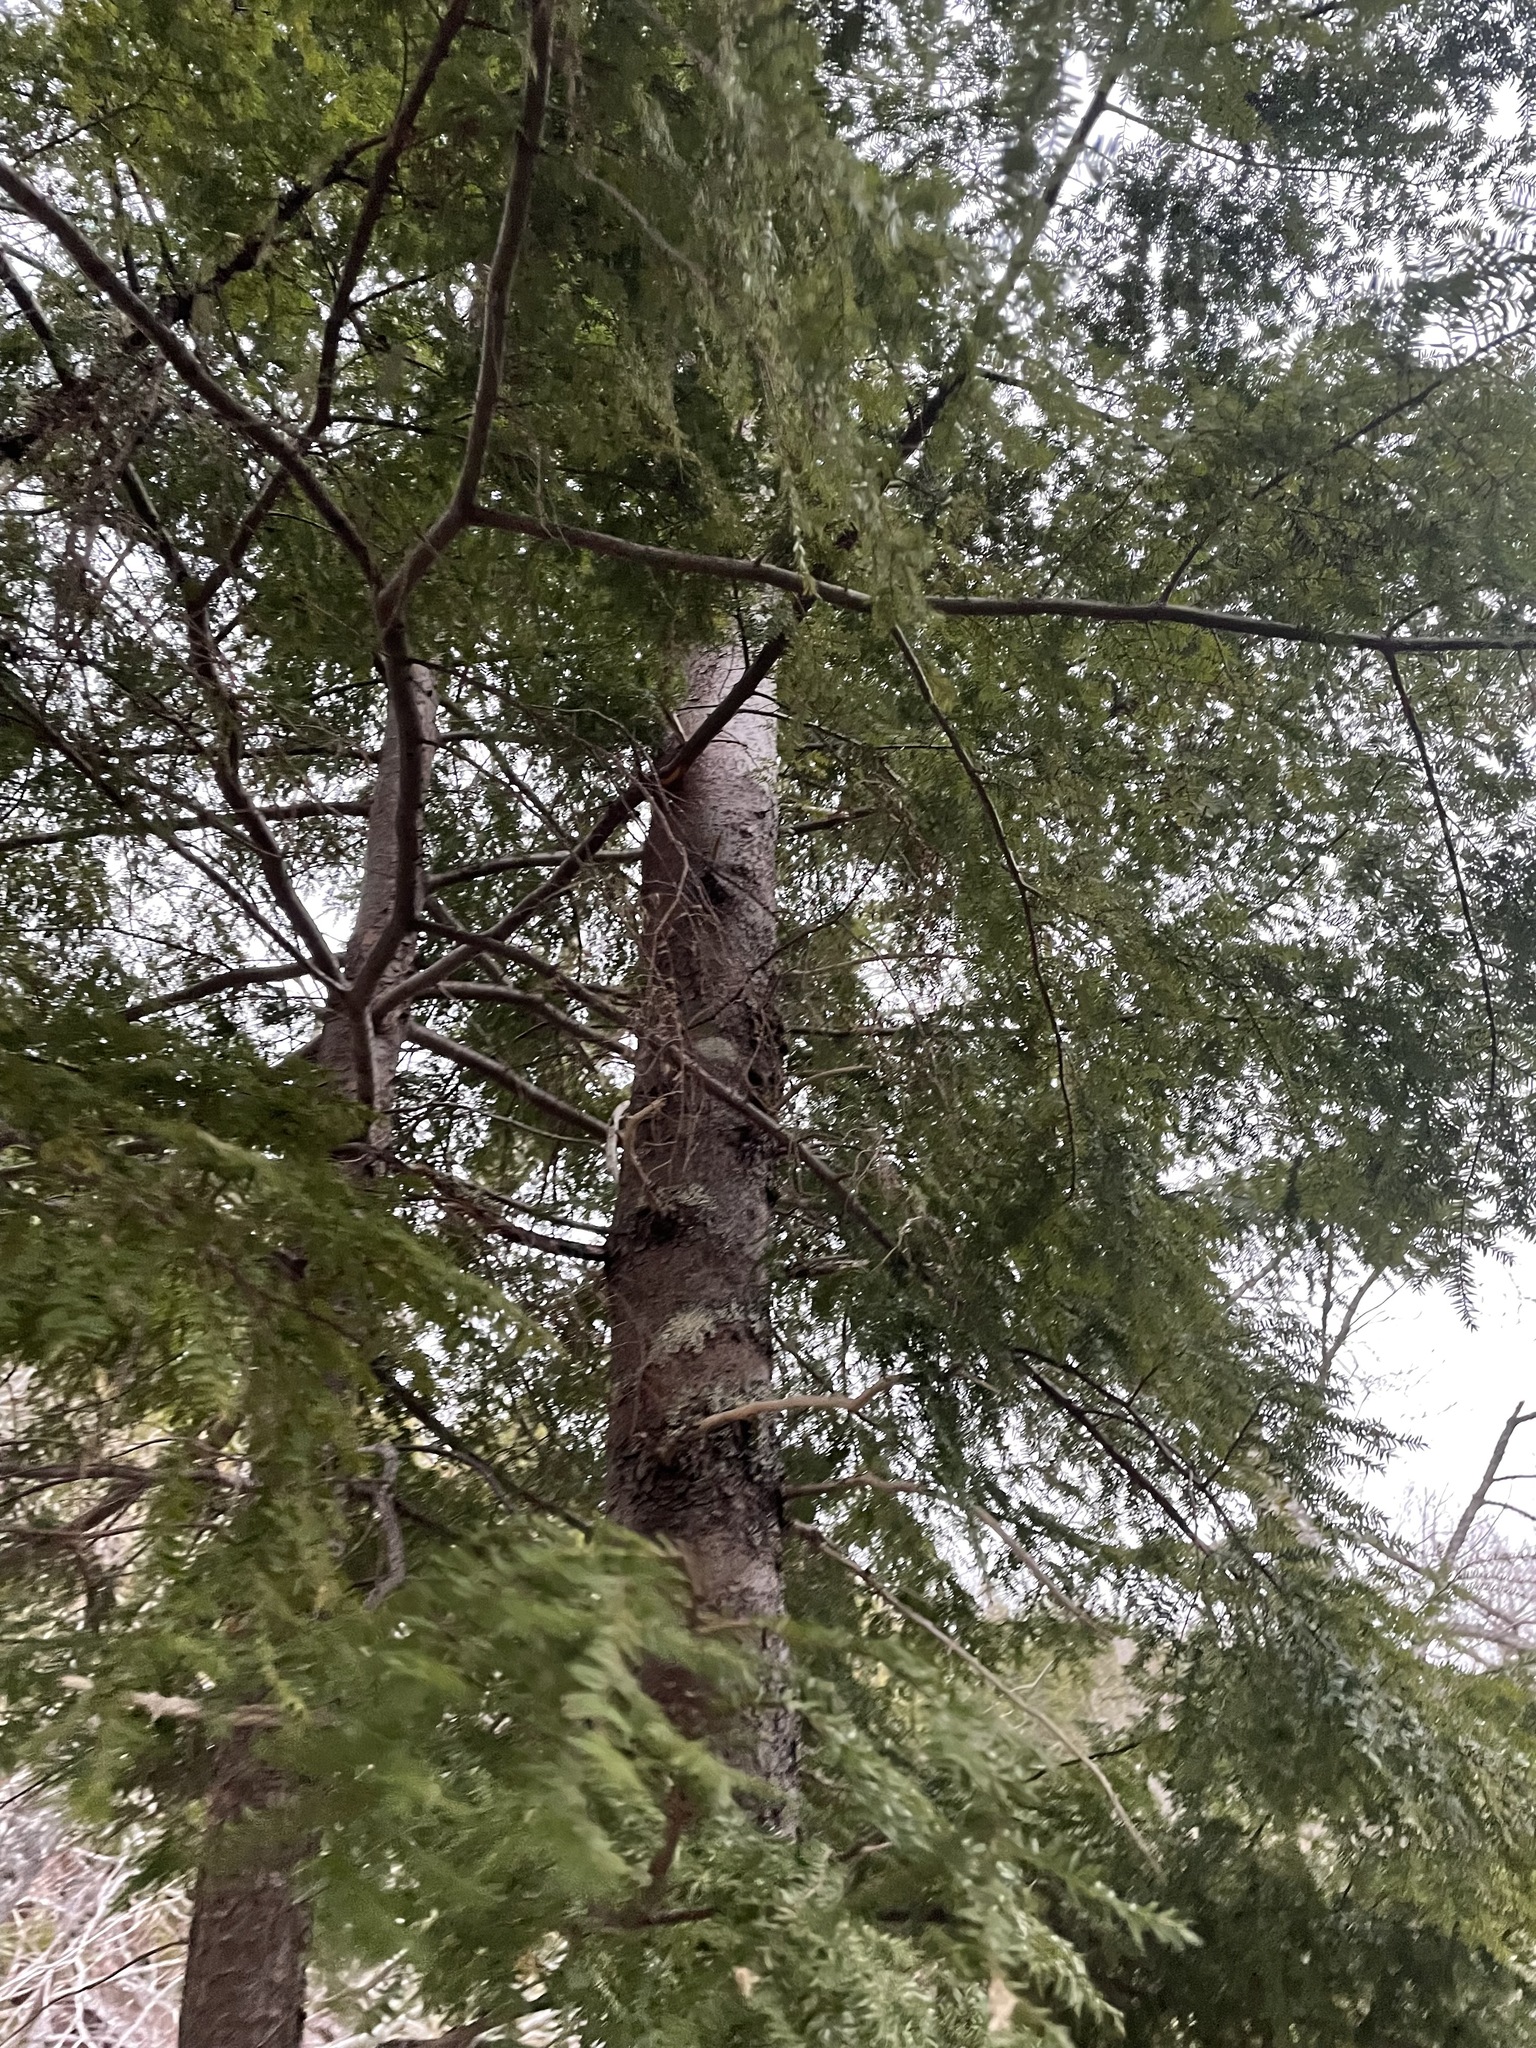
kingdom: Plantae
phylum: Tracheophyta
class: Pinopsida
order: Pinales
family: Pinaceae
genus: Tsuga
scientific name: Tsuga canadensis
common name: Eastern hemlock
